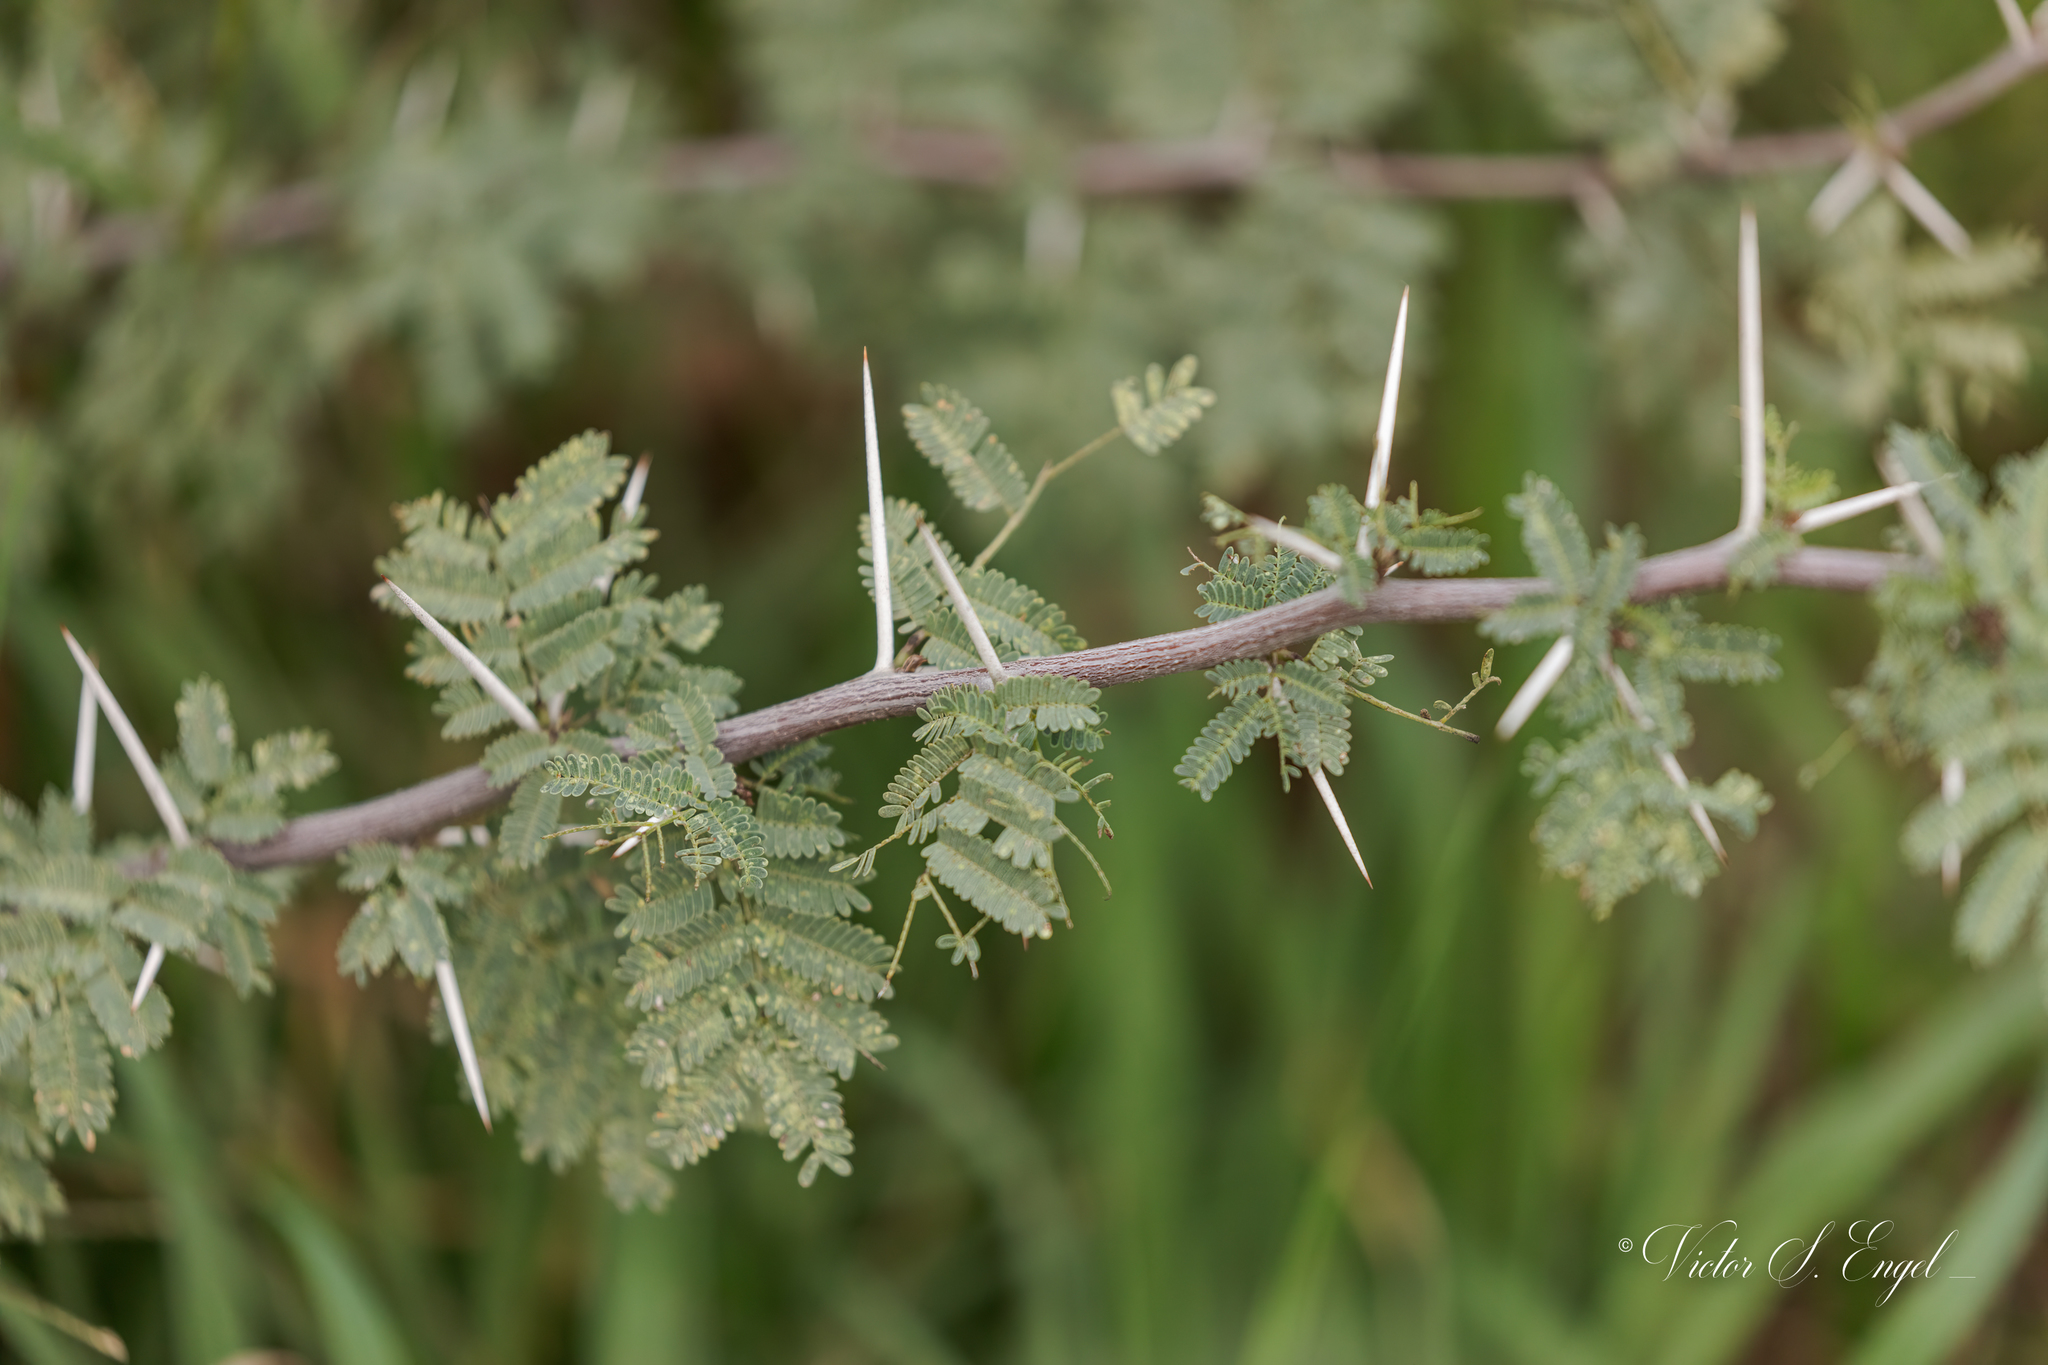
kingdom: Plantae
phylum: Tracheophyta
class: Magnoliopsida
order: Fabales
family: Fabaceae
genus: Vachellia
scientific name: Vachellia farnesiana
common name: Sweet acacia
